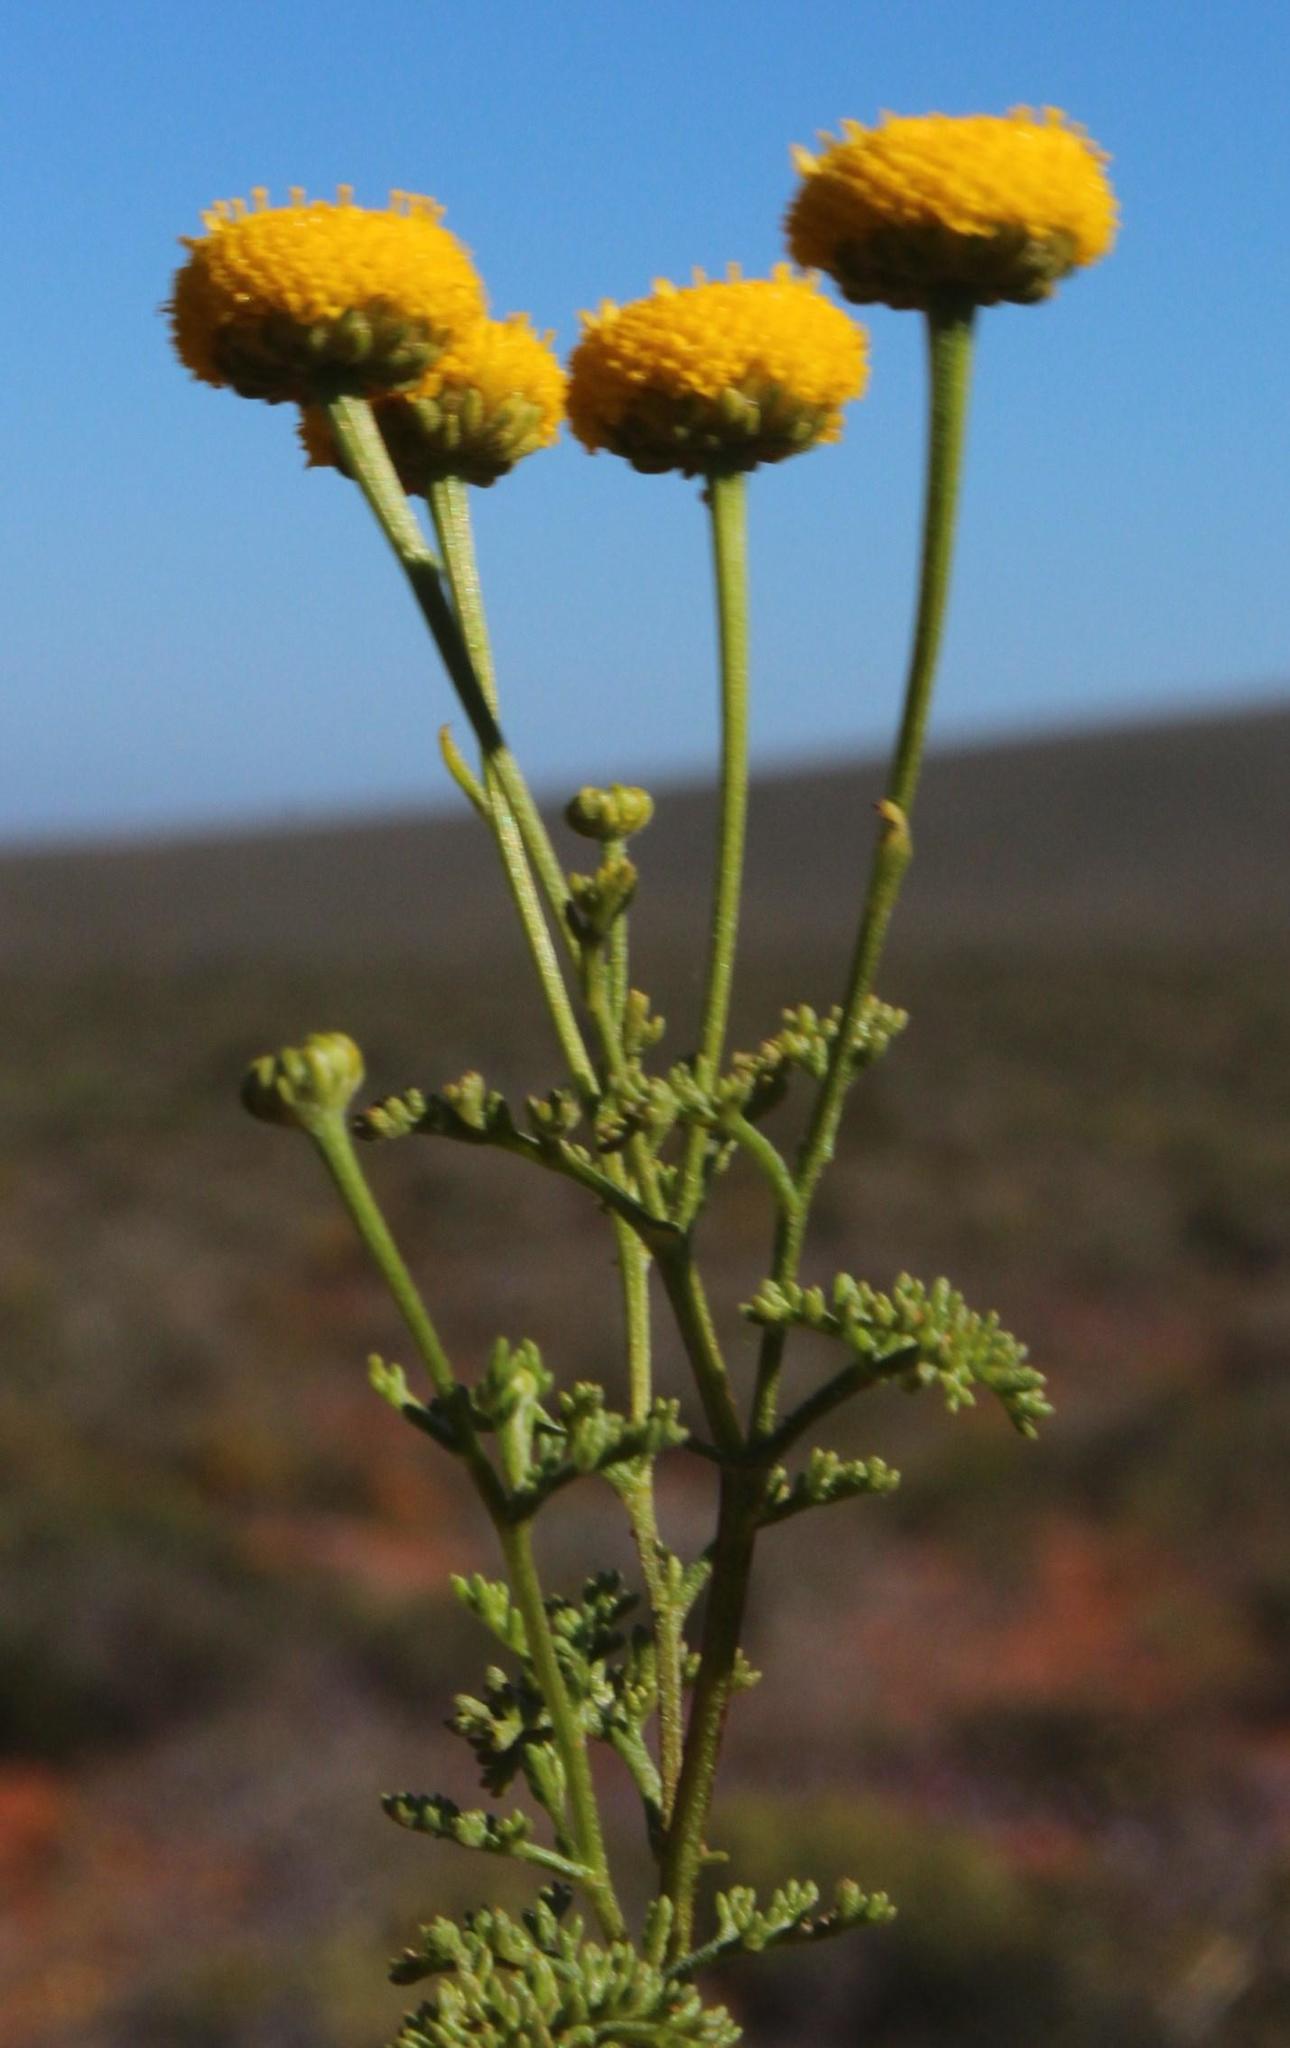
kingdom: Plantae
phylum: Tracheophyta
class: Magnoliopsida
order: Asterales
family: Asteraceae
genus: Oncosiphon
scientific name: Oncosiphon grandiflorus
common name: Swollen-flowered maywood
